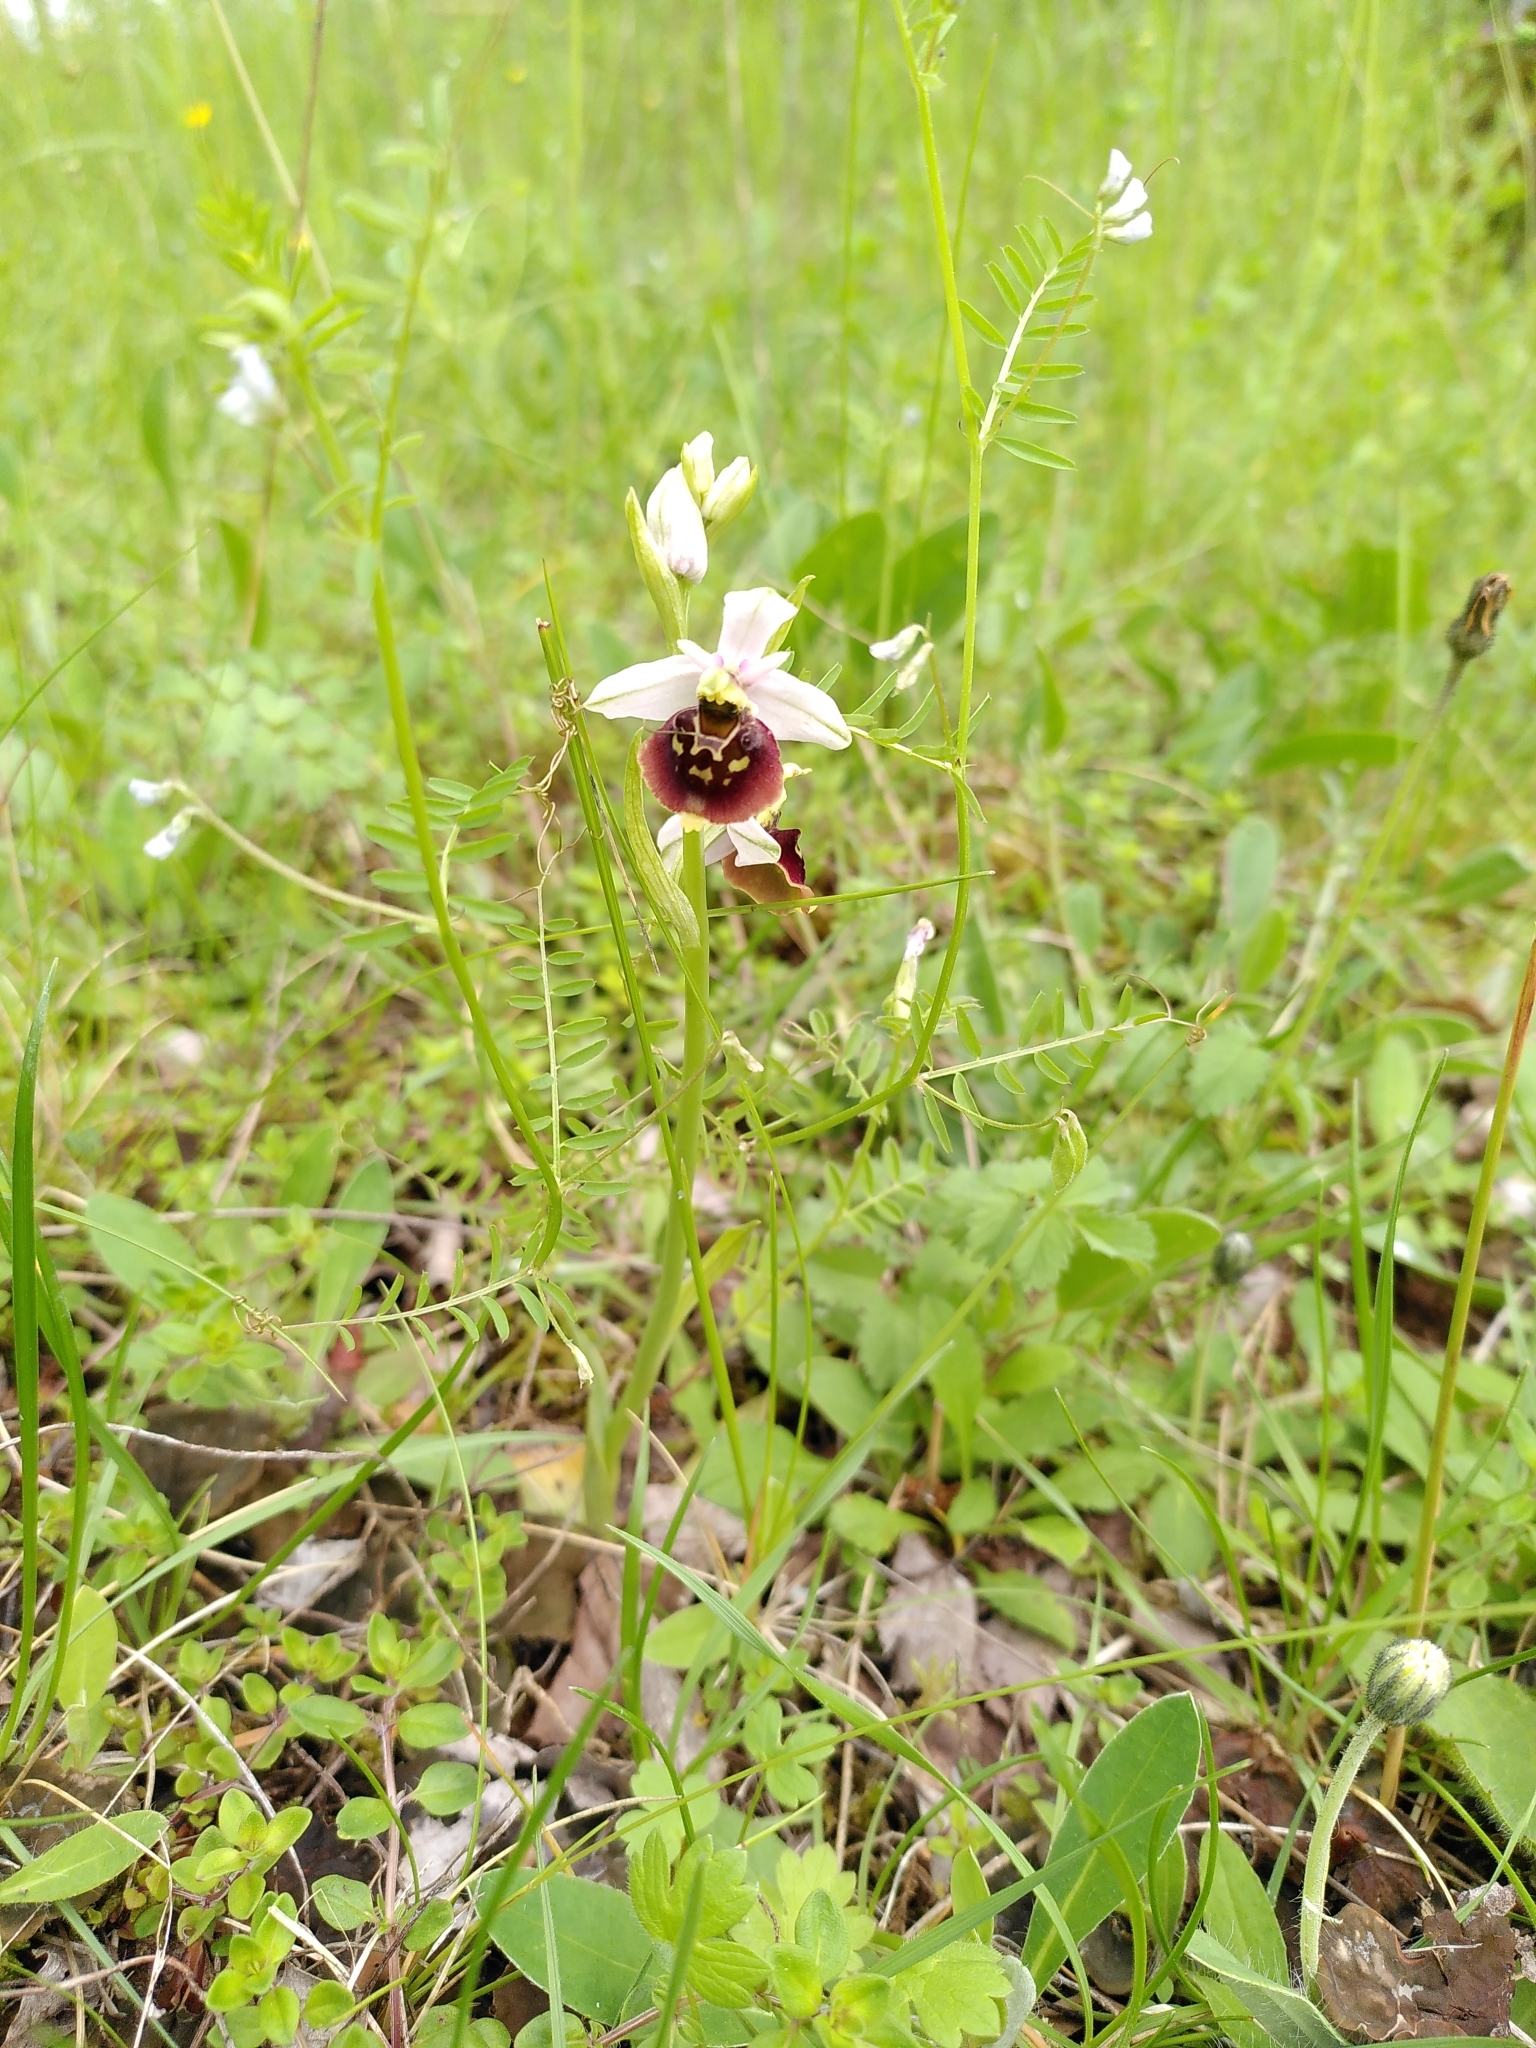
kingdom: Plantae
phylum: Tracheophyta
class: Liliopsida
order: Asparagales
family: Orchidaceae
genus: Ophrys
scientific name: Ophrys holosericea
